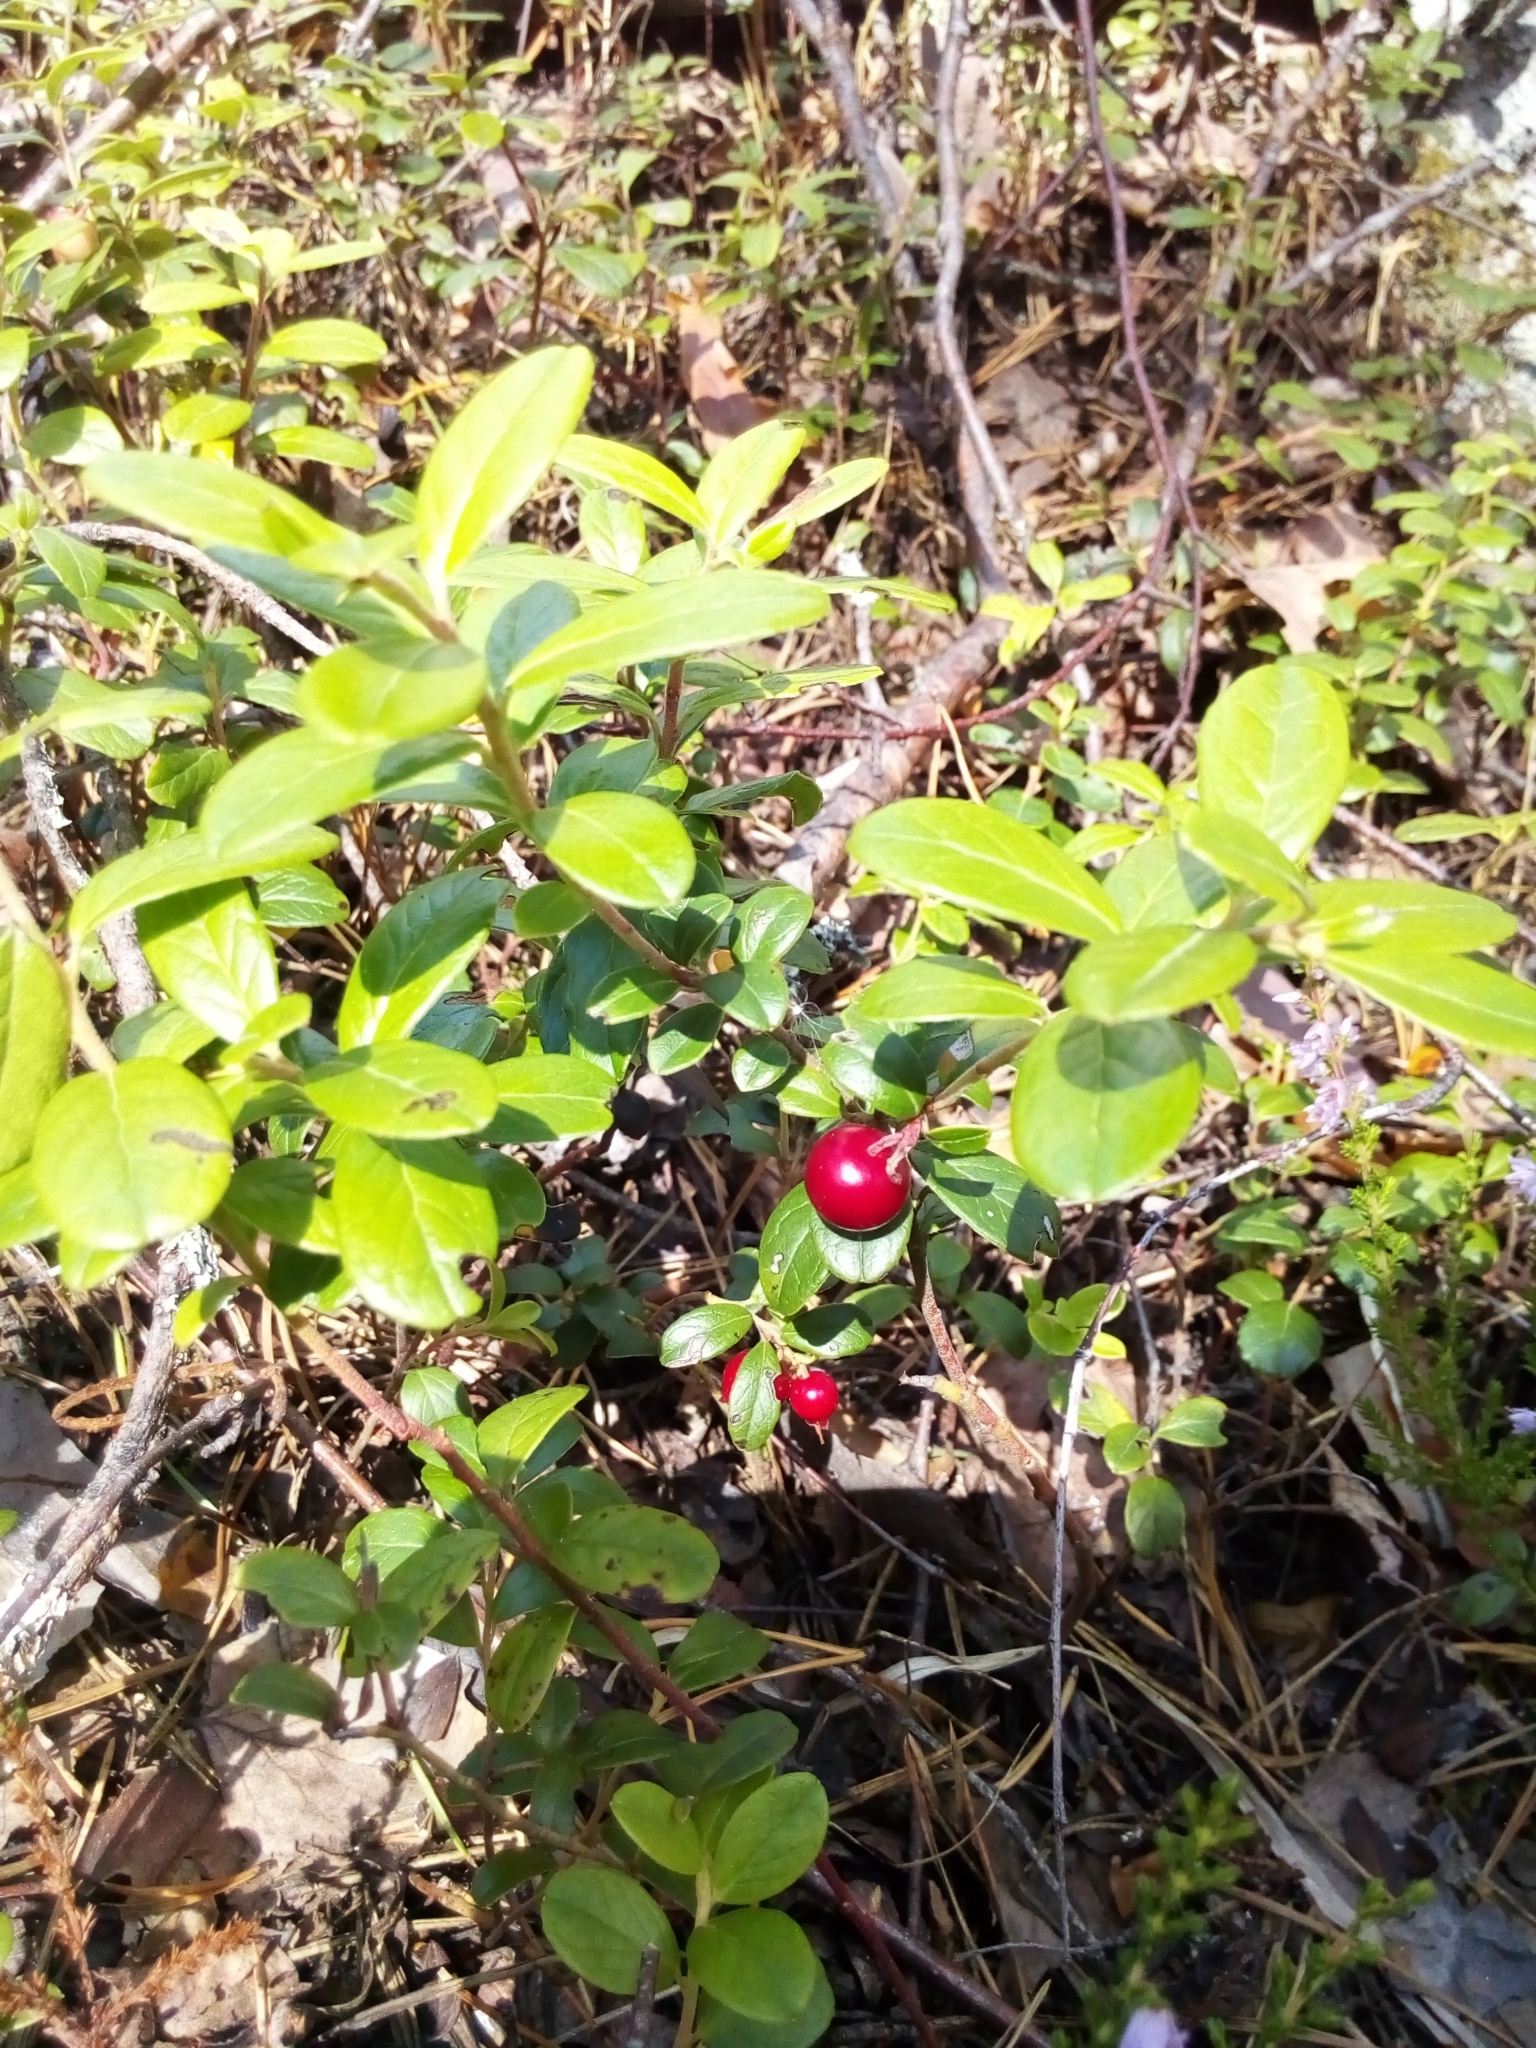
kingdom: Plantae
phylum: Tracheophyta
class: Magnoliopsida
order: Ericales
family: Ericaceae
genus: Vaccinium
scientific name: Vaccinium vitis-idaea
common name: Cowberry
